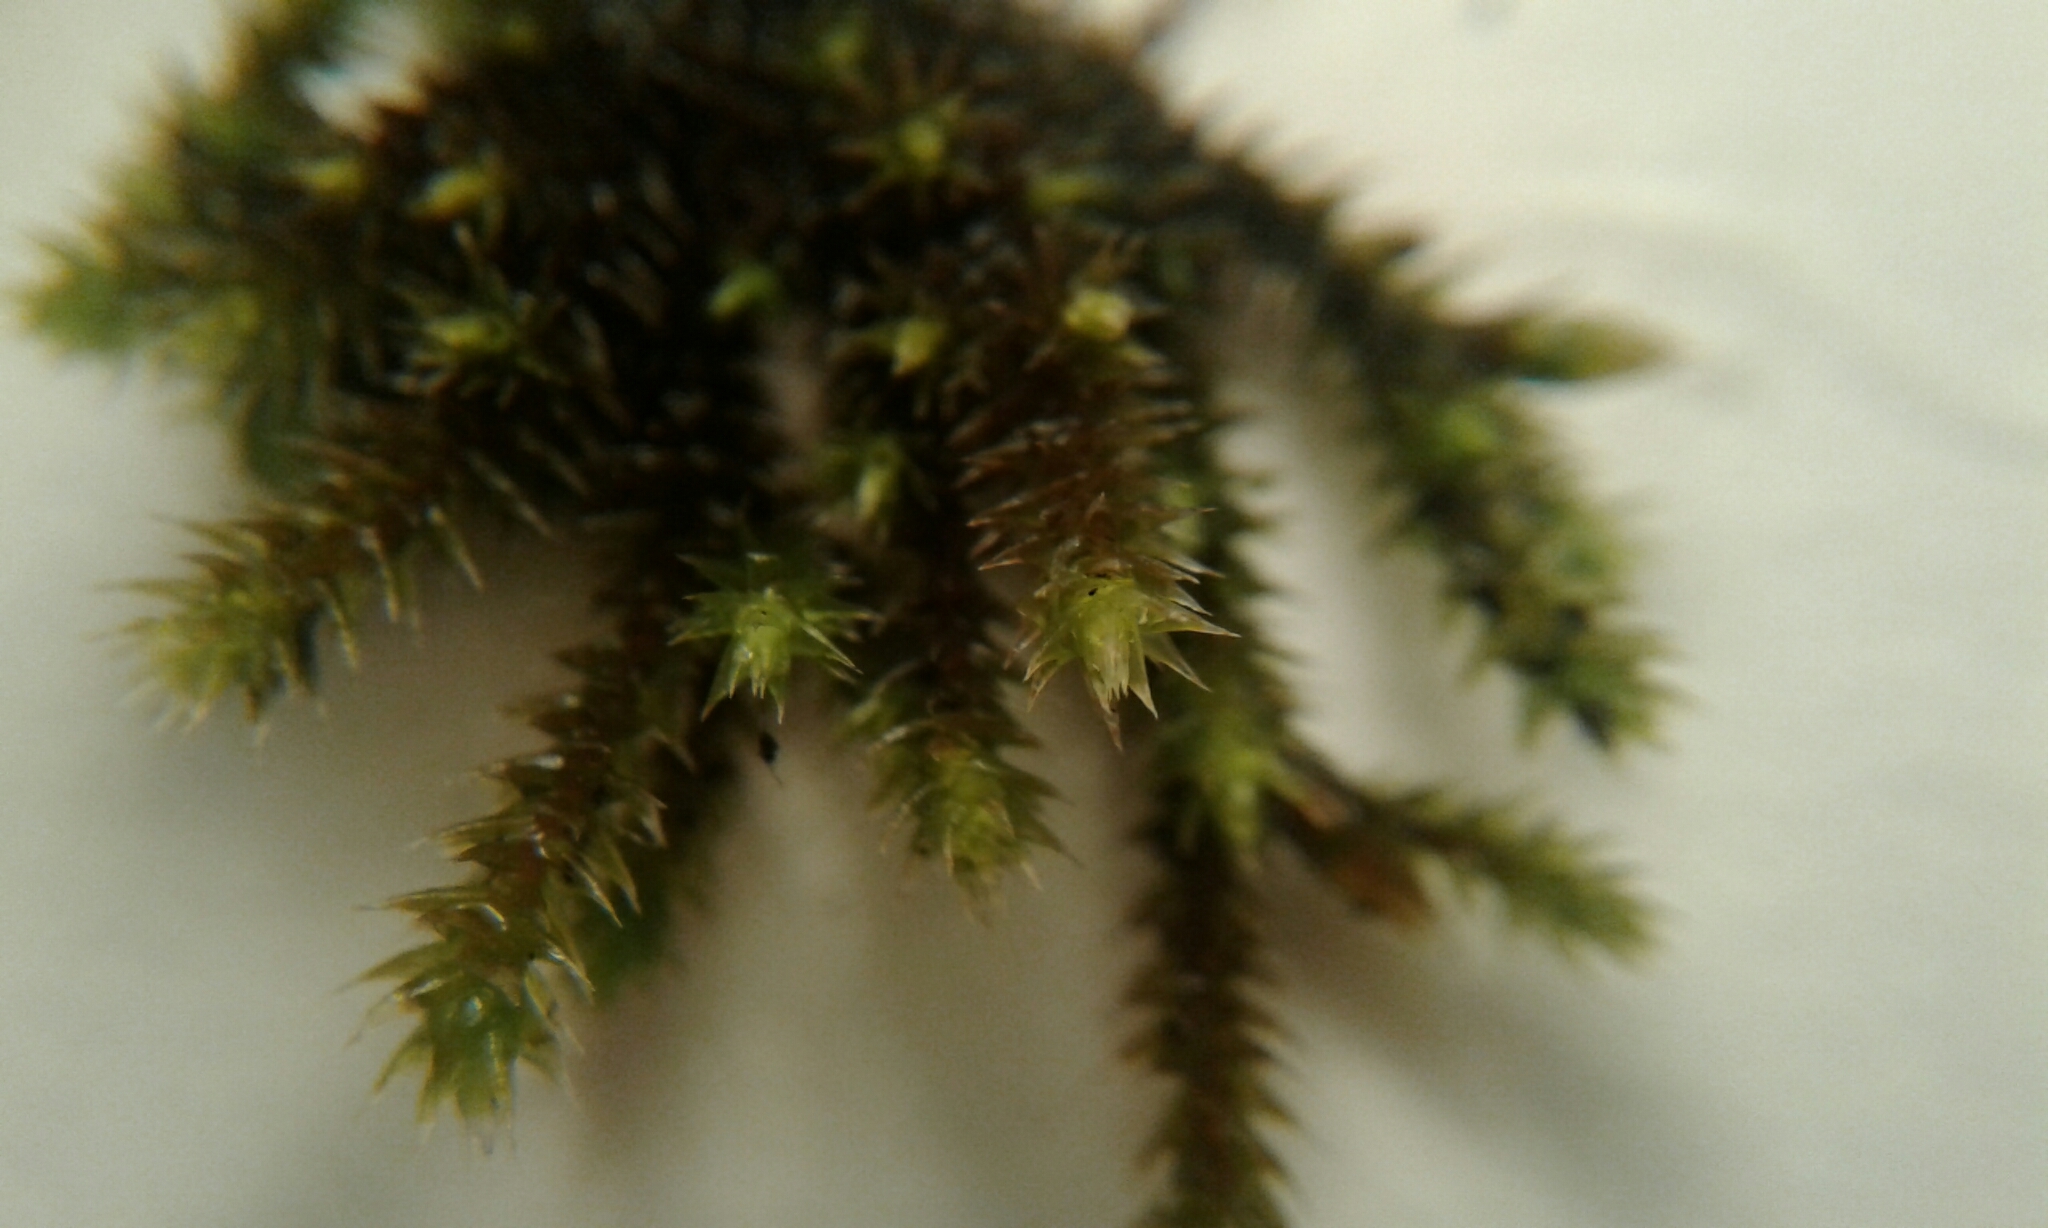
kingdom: Plantae
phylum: Bryophyta
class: Bryopsida
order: Hedwigiales
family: Hedwigiaceae
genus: Hedwigia
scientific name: Hedwigia ciliata
